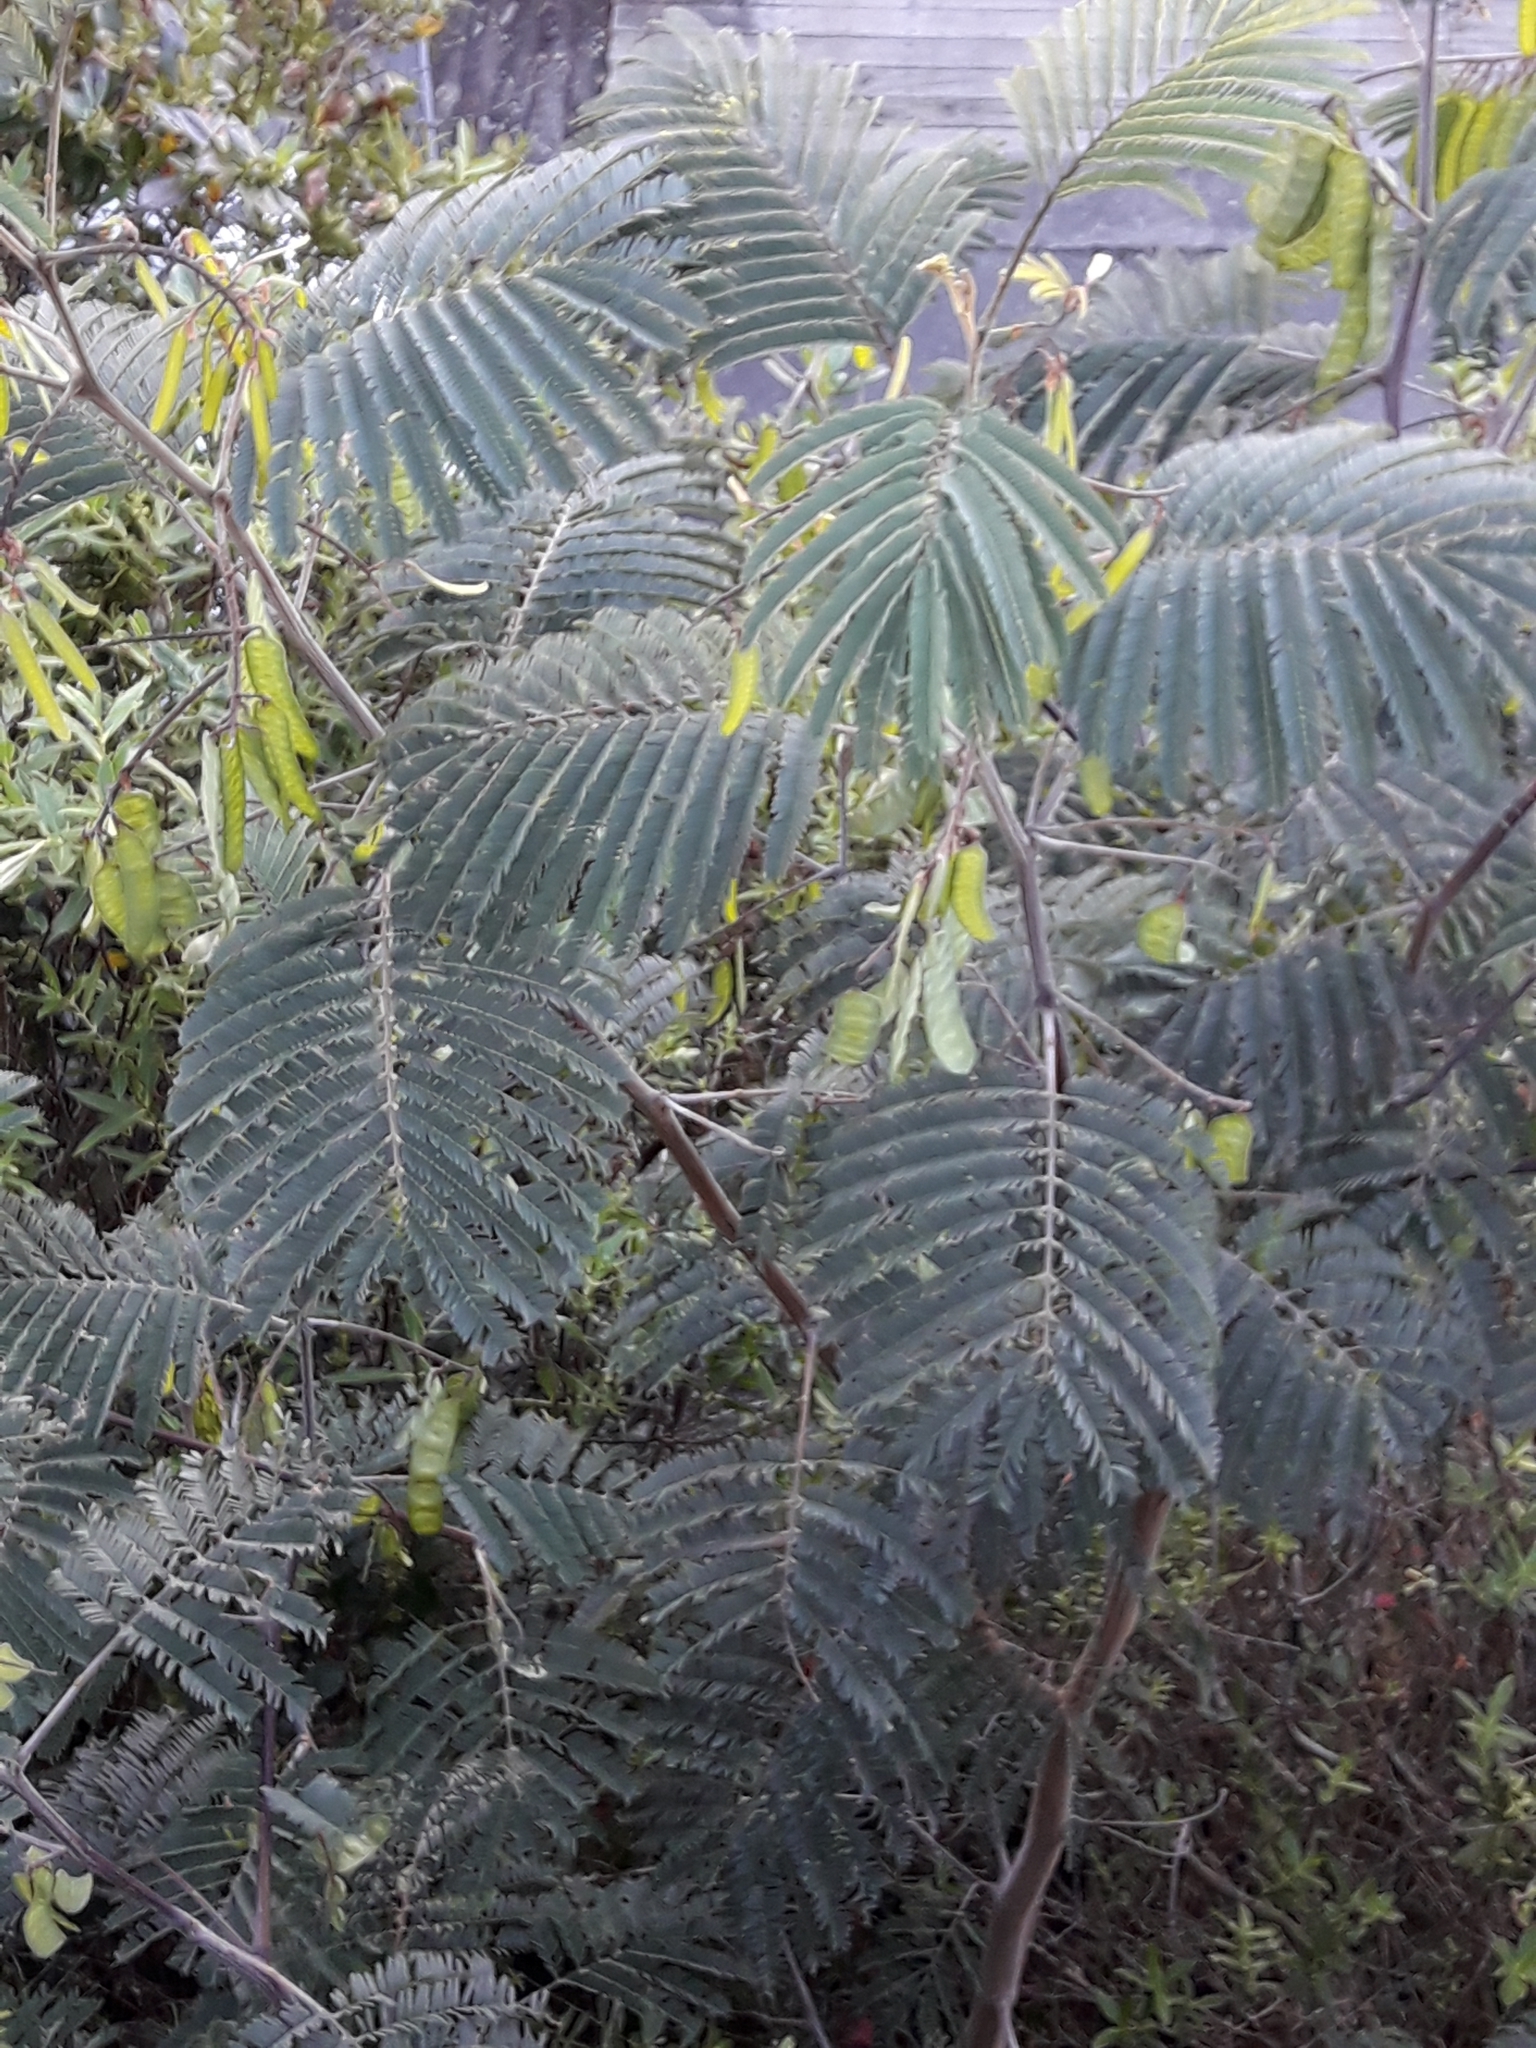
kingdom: Plantae
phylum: Tracheophyta
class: Magnoliopsida
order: Fabales
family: Fabaceae
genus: Paraserianthes
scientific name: Paraserianthes lophantha
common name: Plume albizia
